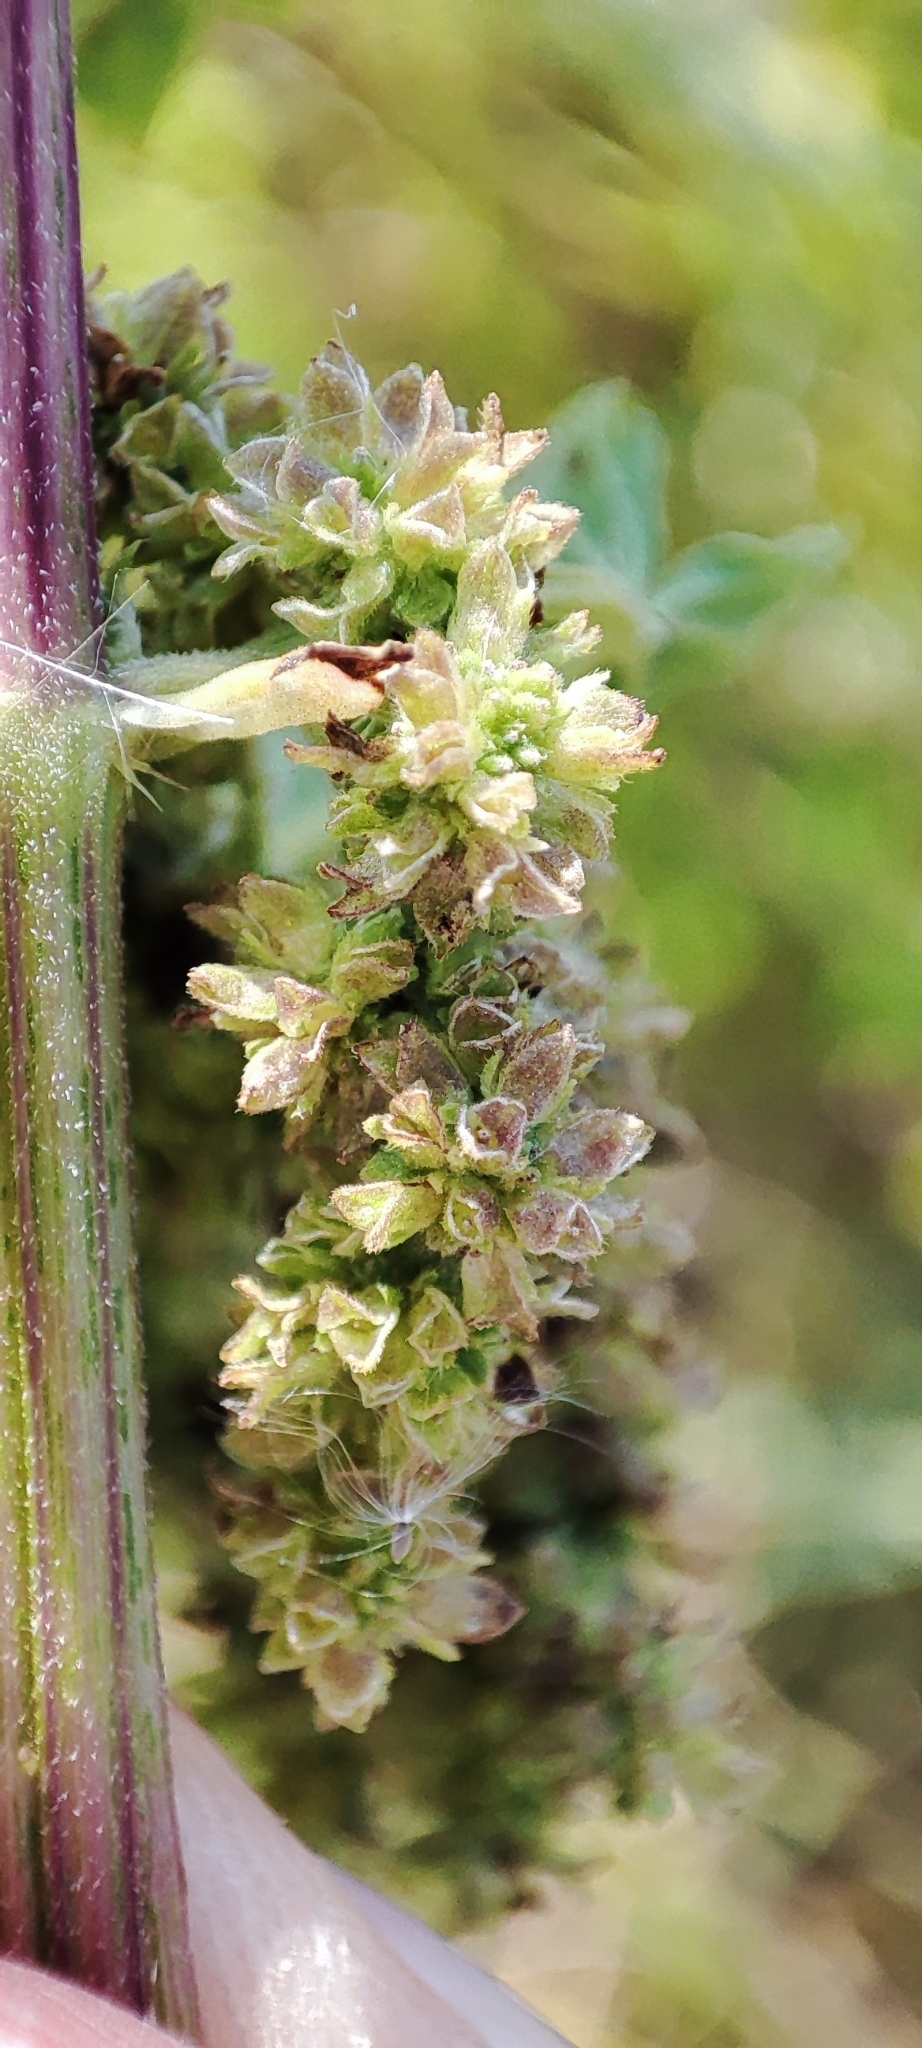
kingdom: Plantae
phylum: Tracheophyta
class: Magnoliopsida
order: Rosales
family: Urticaceae
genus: Urtica
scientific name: Urtica dioica
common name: Common nettle
